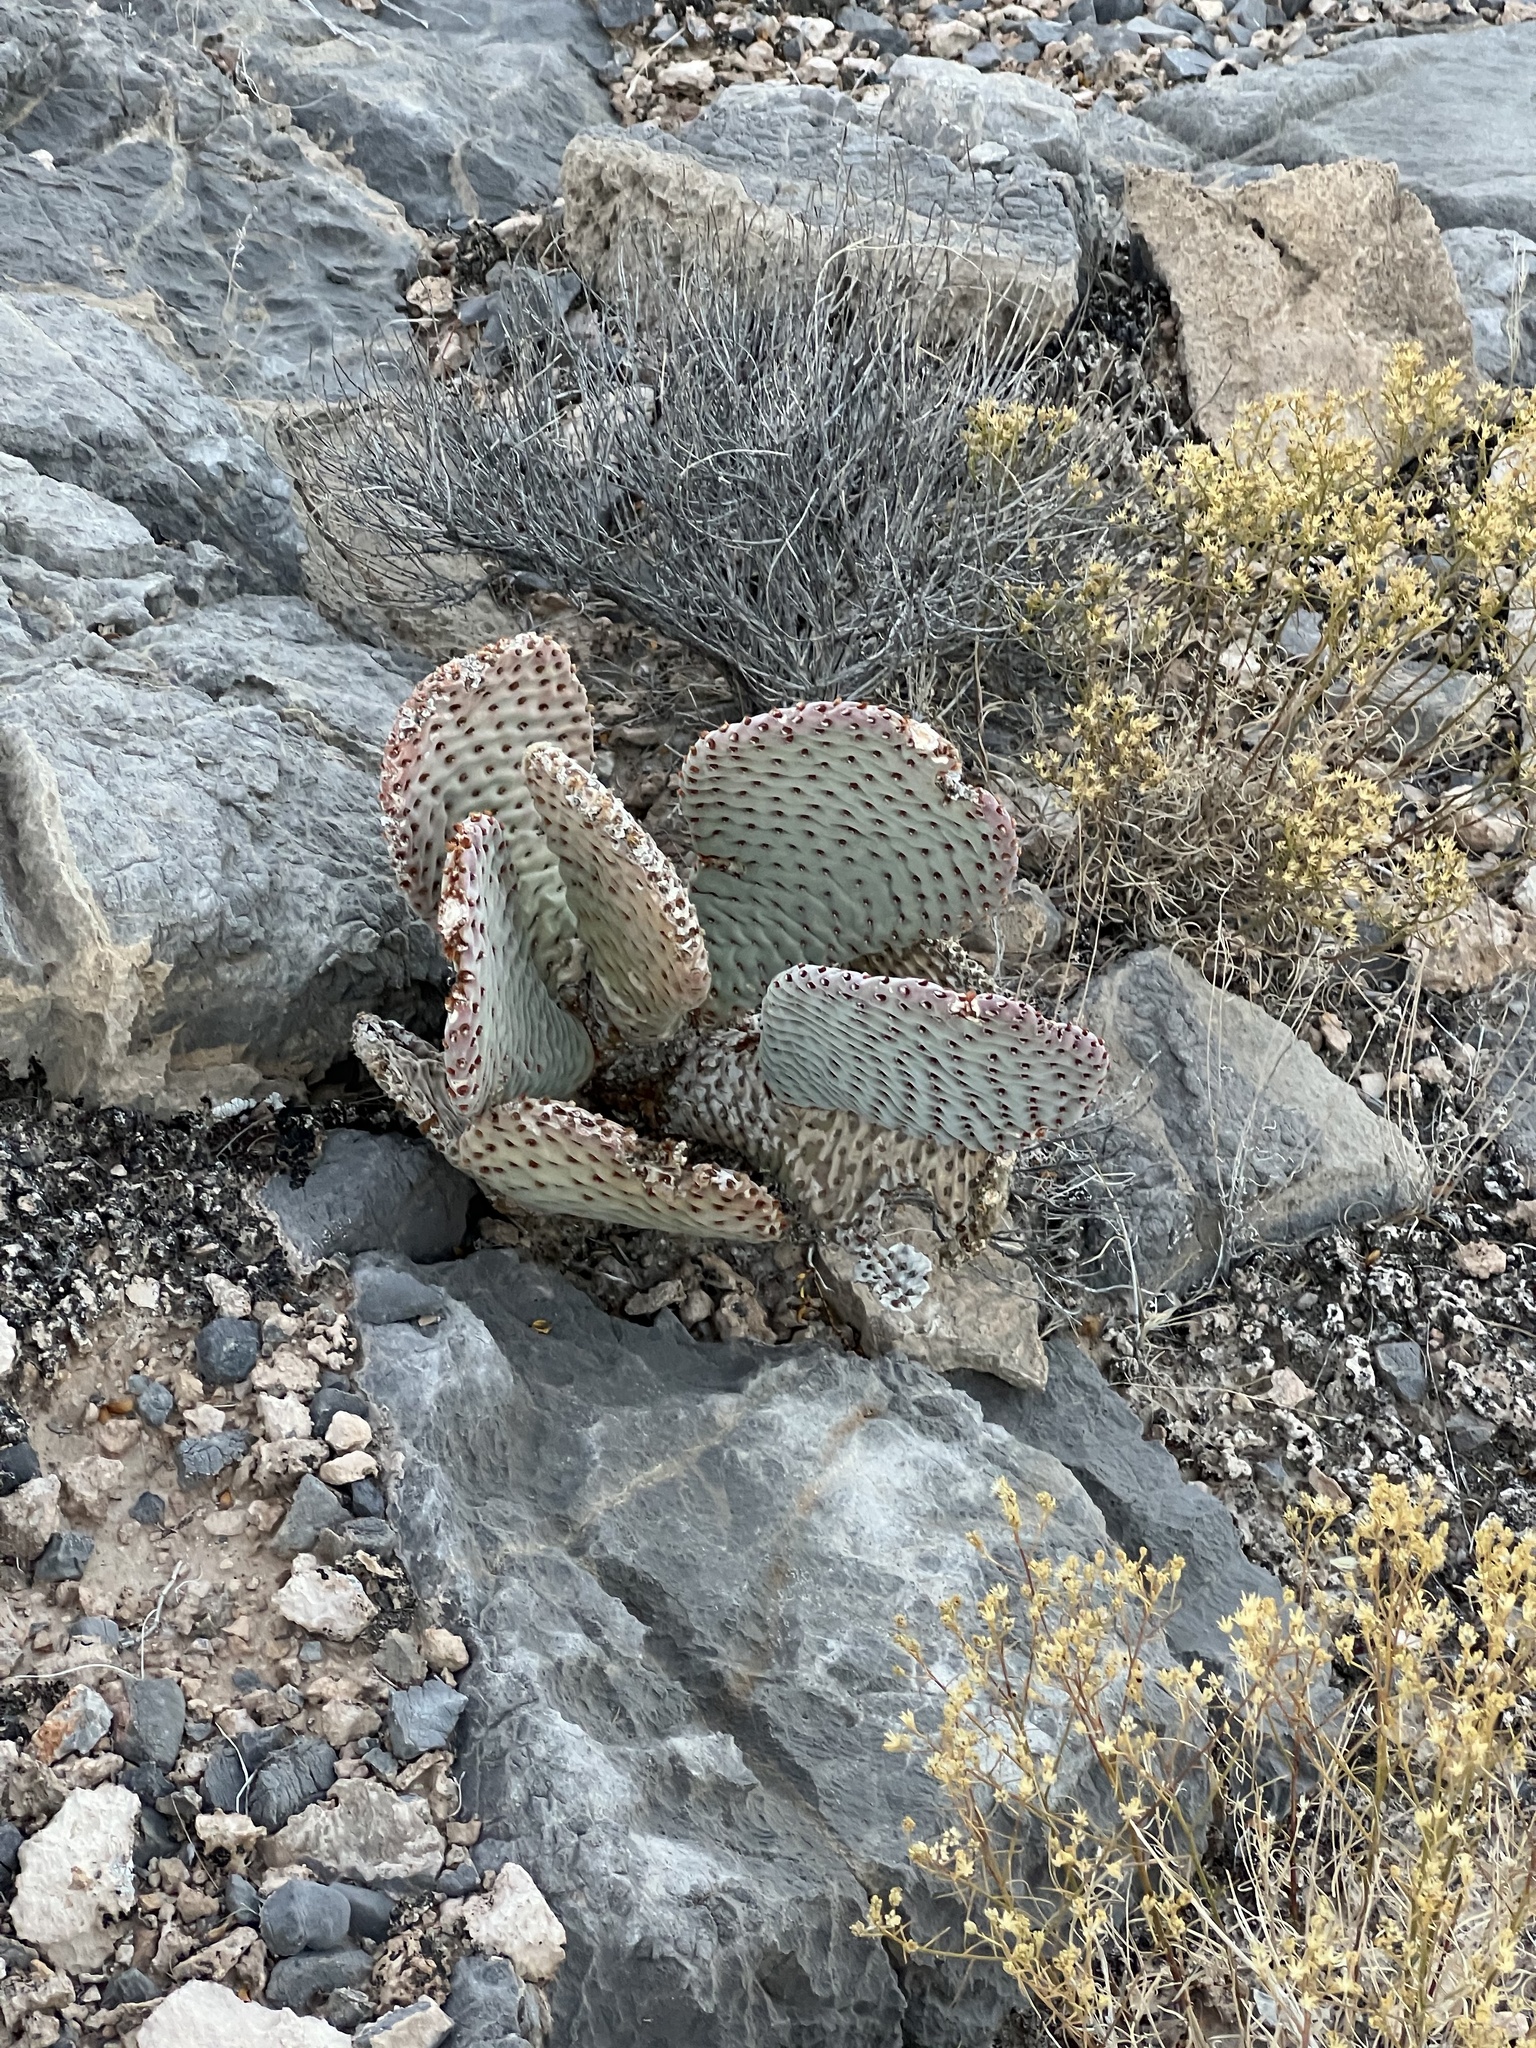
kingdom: Plantae
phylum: Tracheophyta
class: Magnoliopsida
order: Caryophyllales
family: Cactaceae
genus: Opuntia
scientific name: Opuntia basilaris
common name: Beavertail prickly-pear
